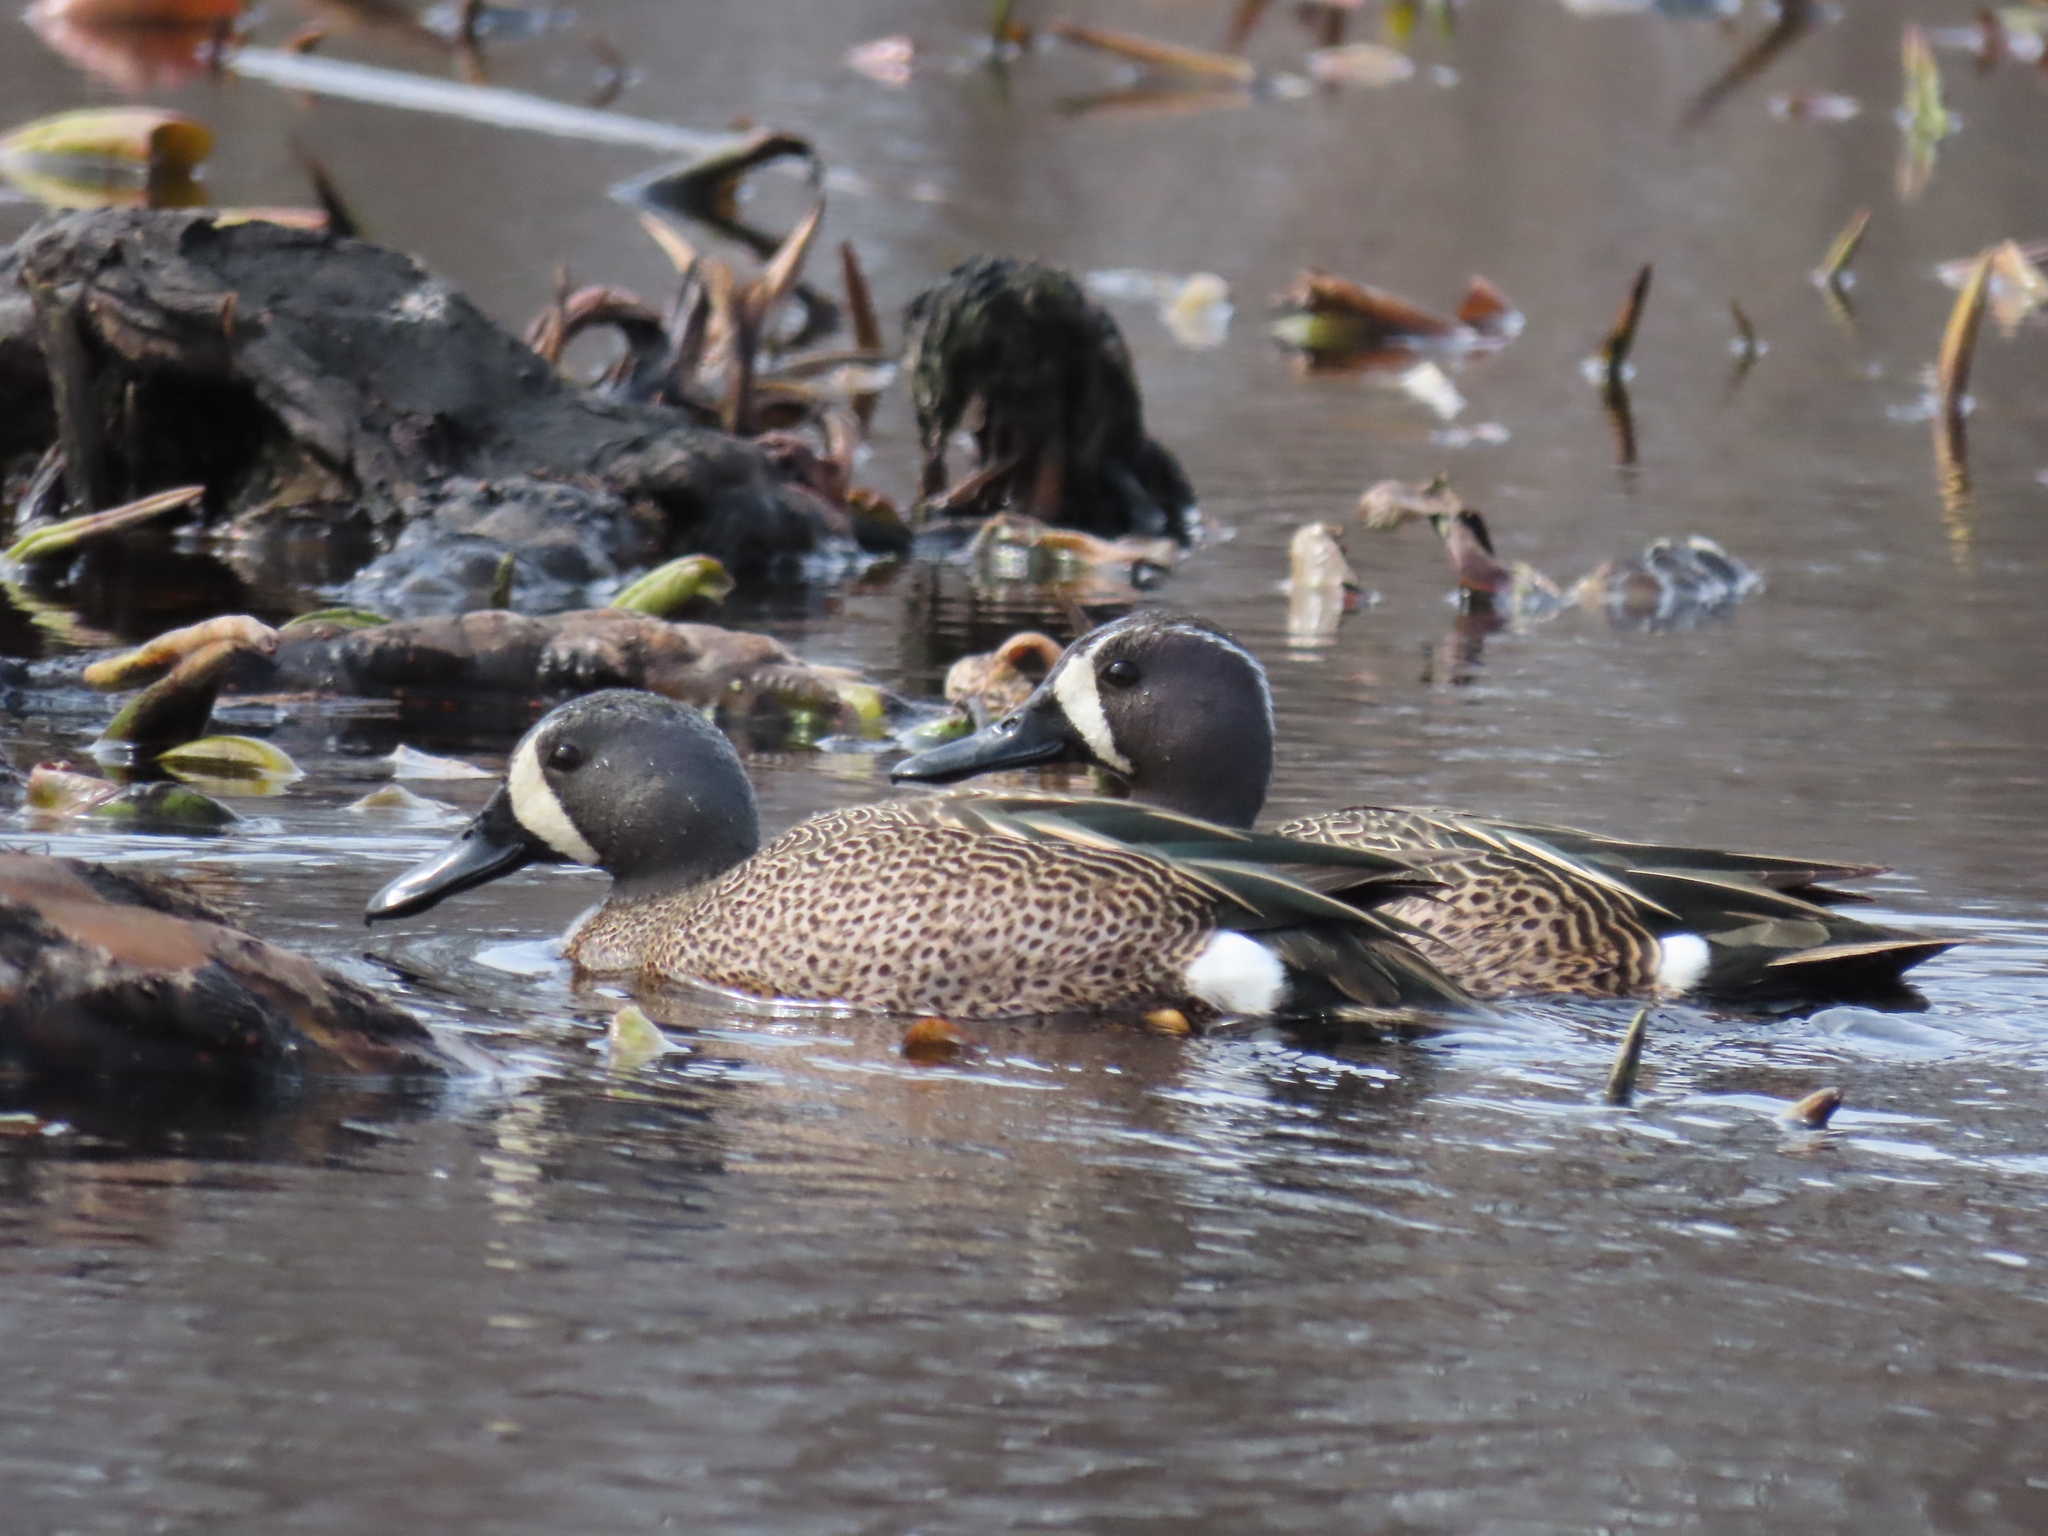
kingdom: Animalia
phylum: Chordata
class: Aves
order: Anseriformes
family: Anatidae
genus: Spatula
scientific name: Spatula discors
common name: Blue-winged teal
